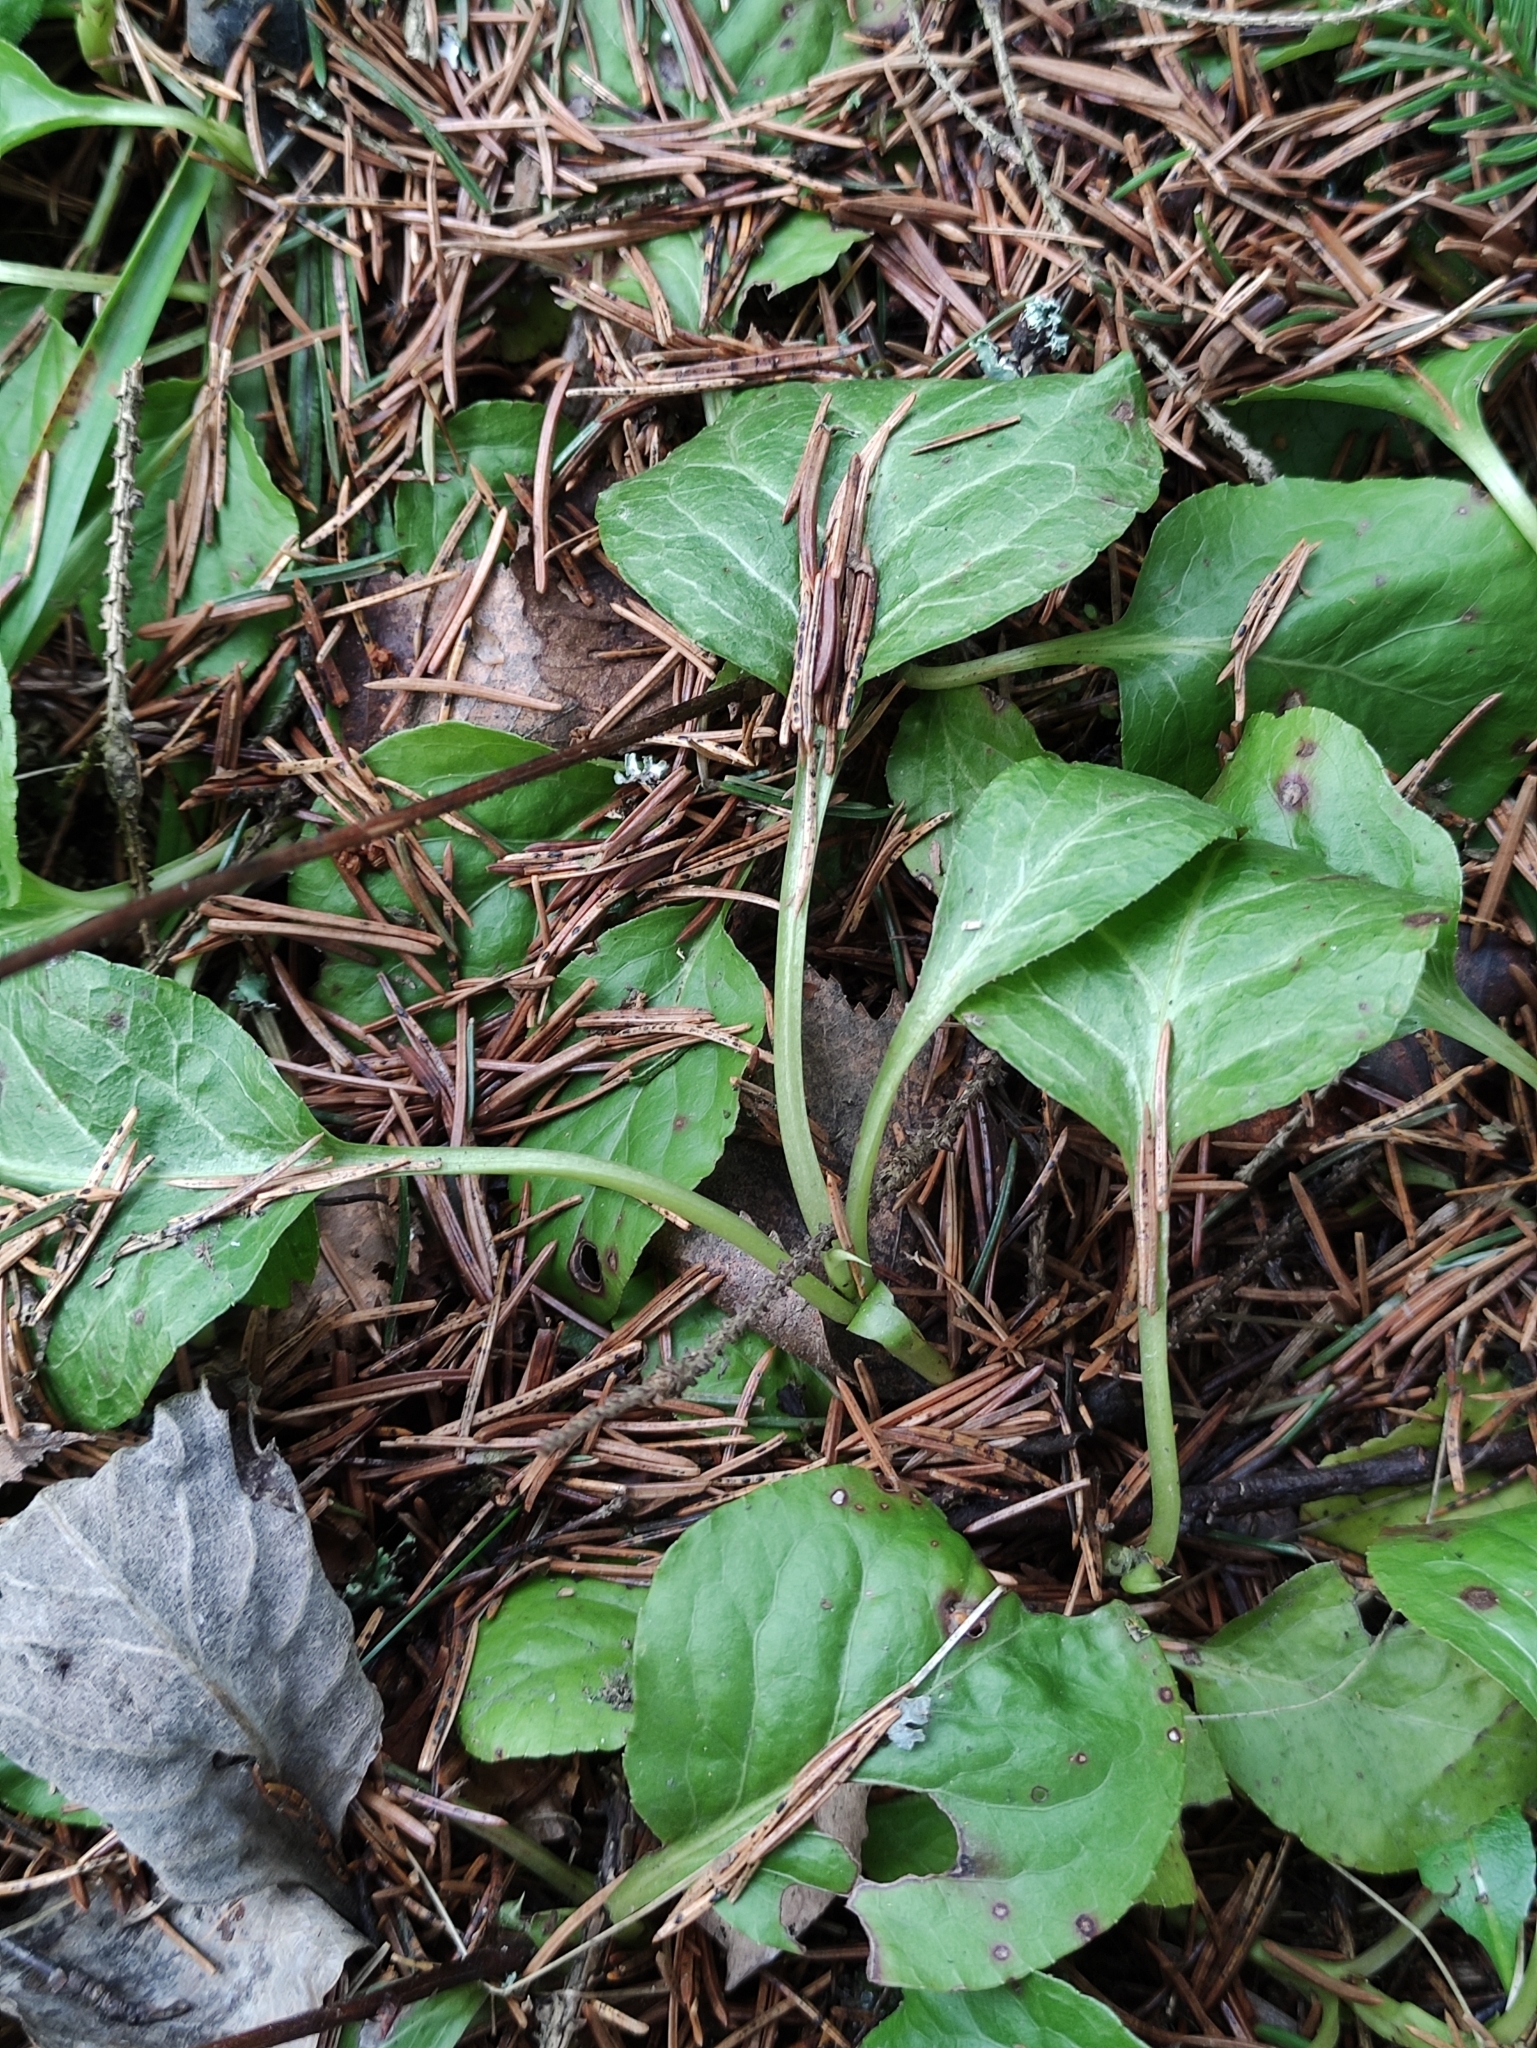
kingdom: Plantae
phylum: Tracheophyta
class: Magnoliopsida
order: Ericales
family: Ericaceae
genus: Pyrola
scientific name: Pyrola minor
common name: Common wintergreen
